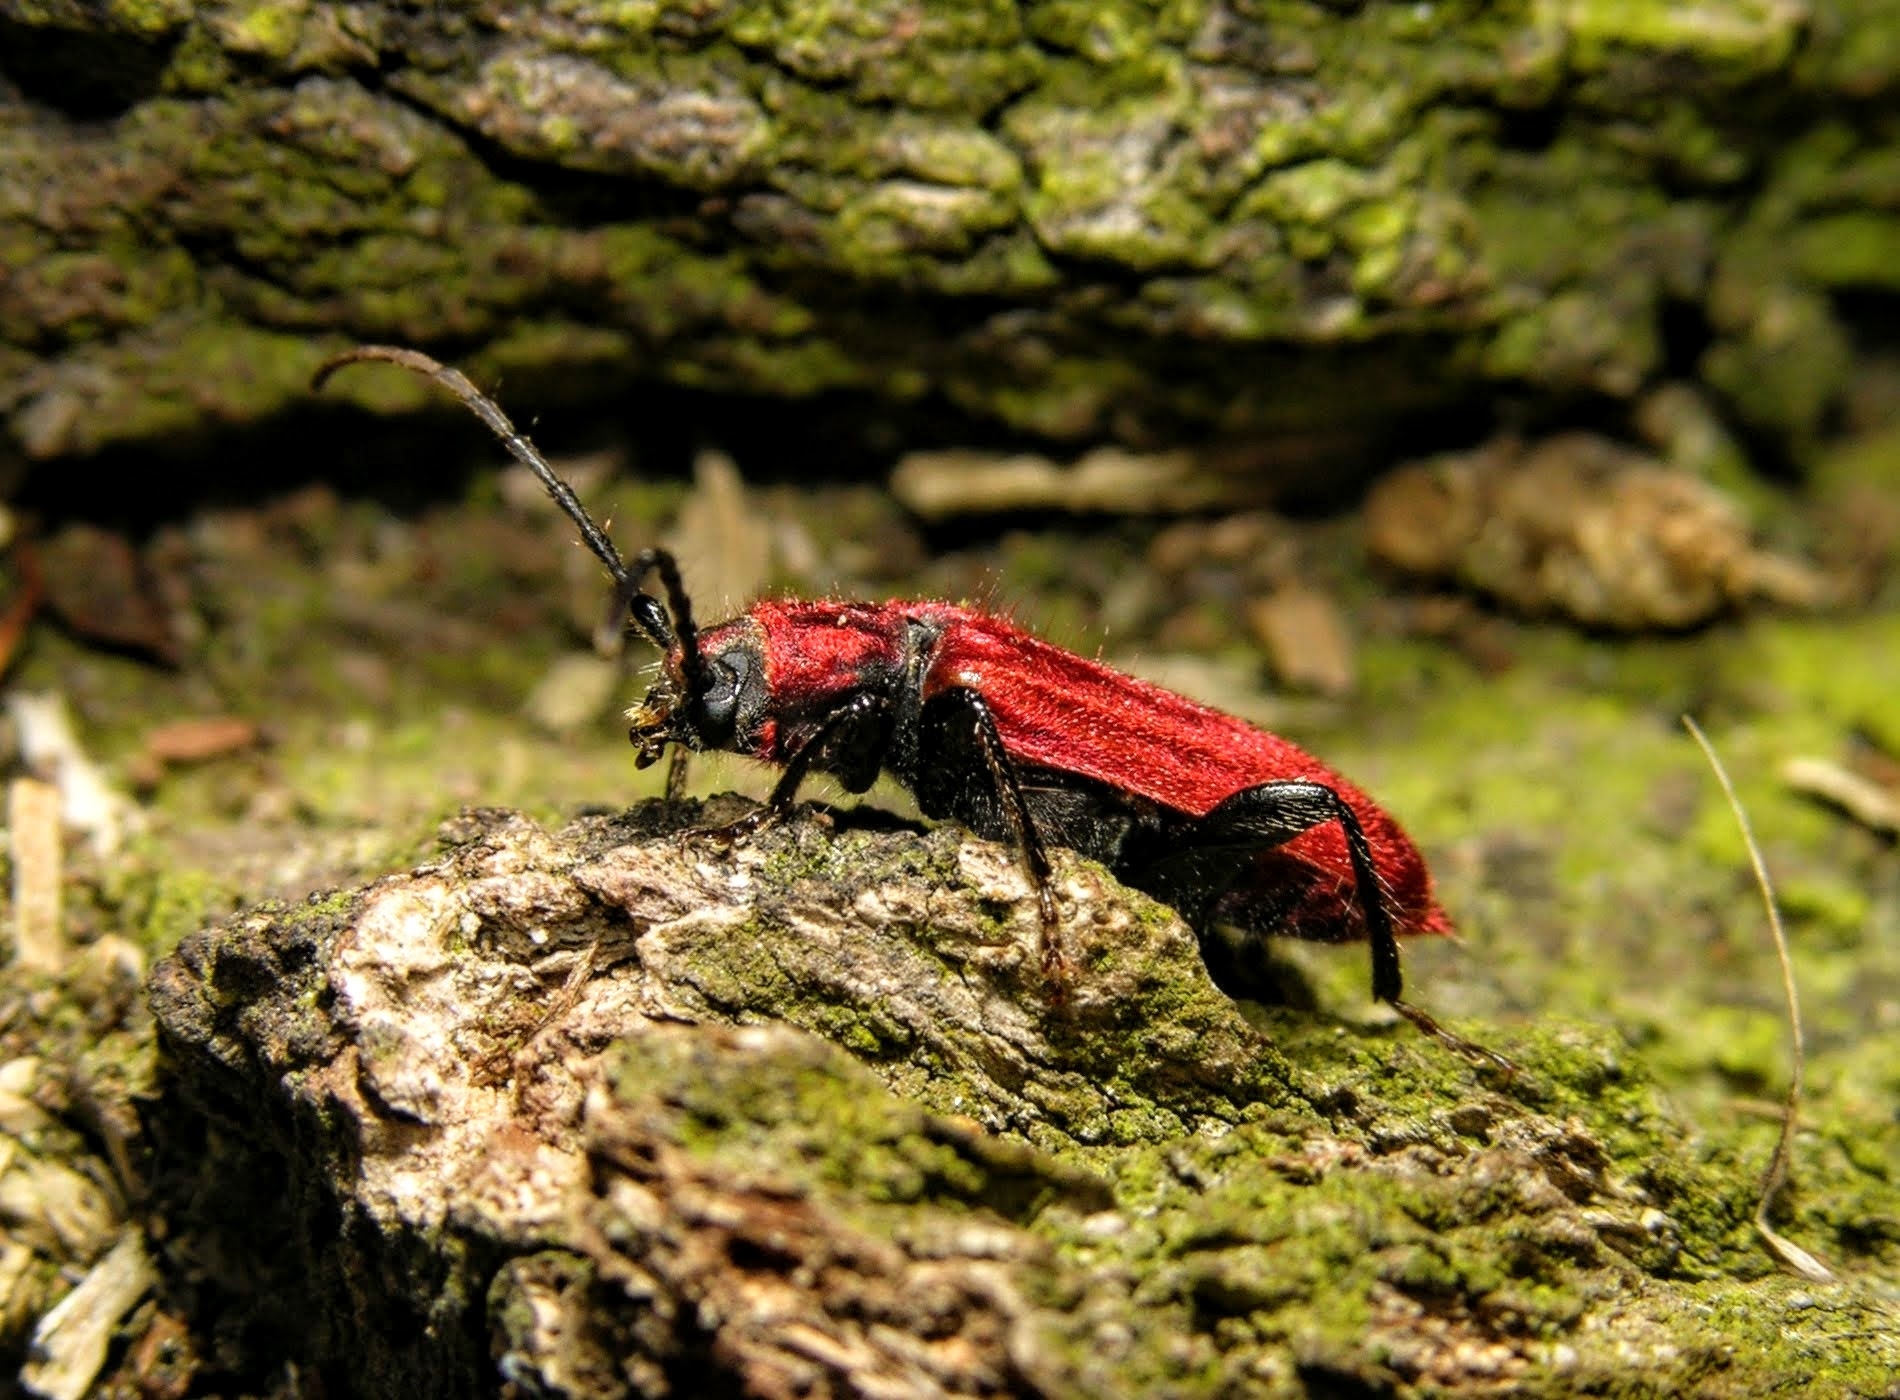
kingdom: Animalia
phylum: Arthropoda
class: Insecta
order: Coleoptera
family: Cerambycidae
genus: Pyrrhidium
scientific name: Pyrrhidium sanguineum
